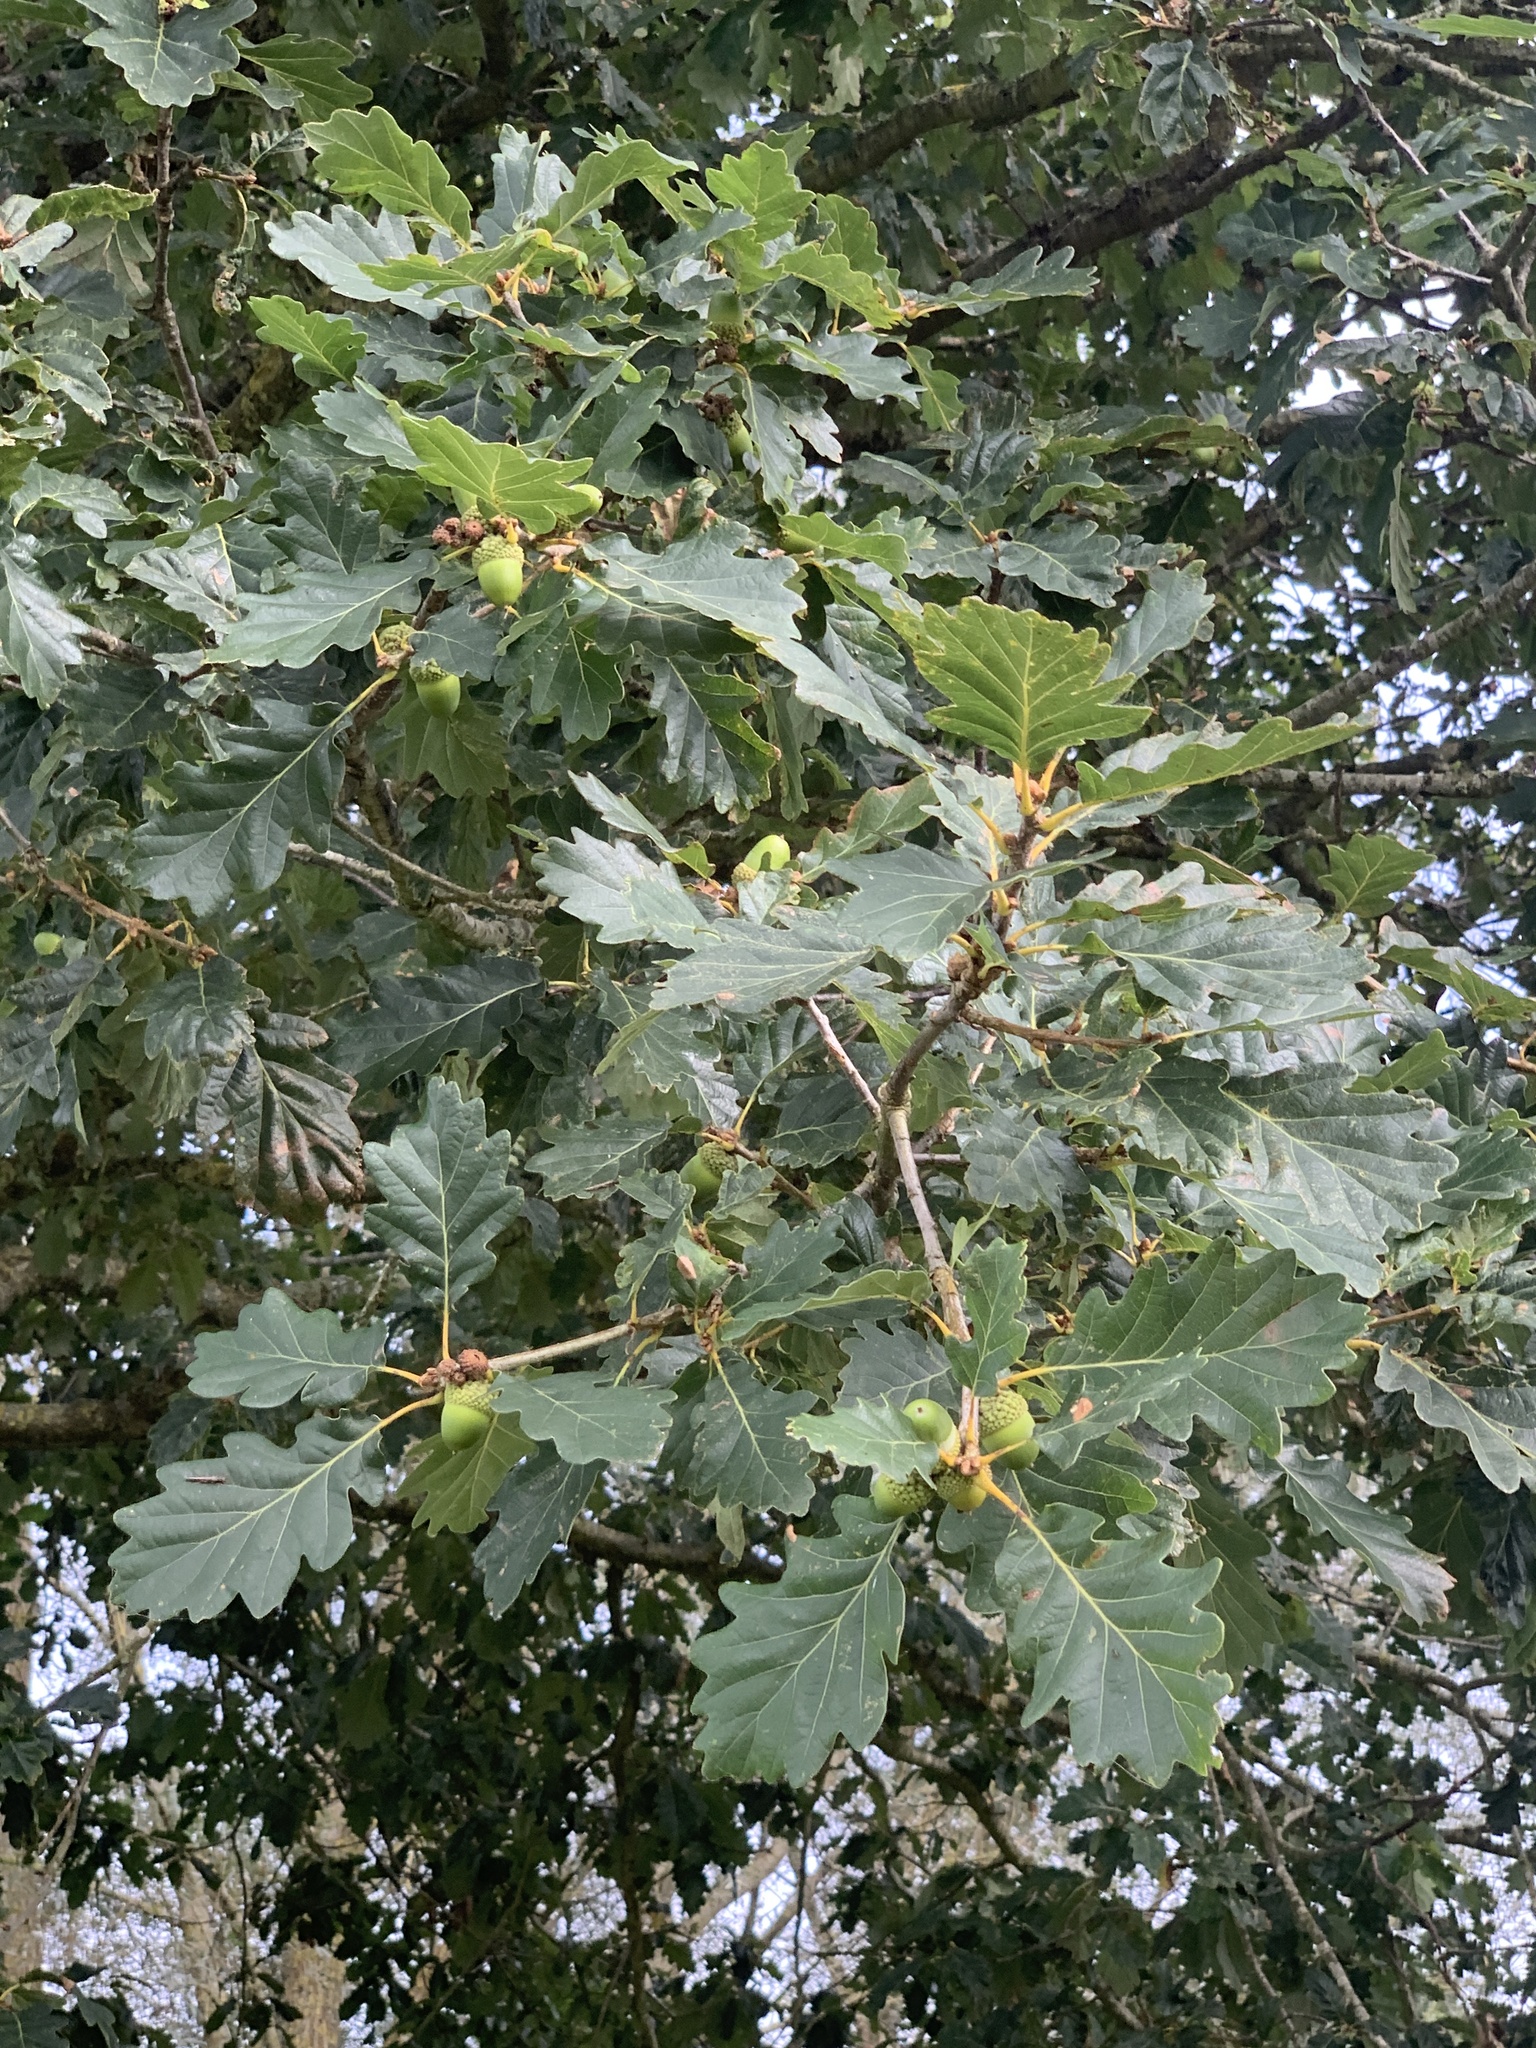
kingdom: Plantae
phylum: Tracheophyta
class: Magnoliopsida
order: Fagales
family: Fagaceae
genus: Quercus
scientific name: Quercus petraea
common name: Sessile oak
